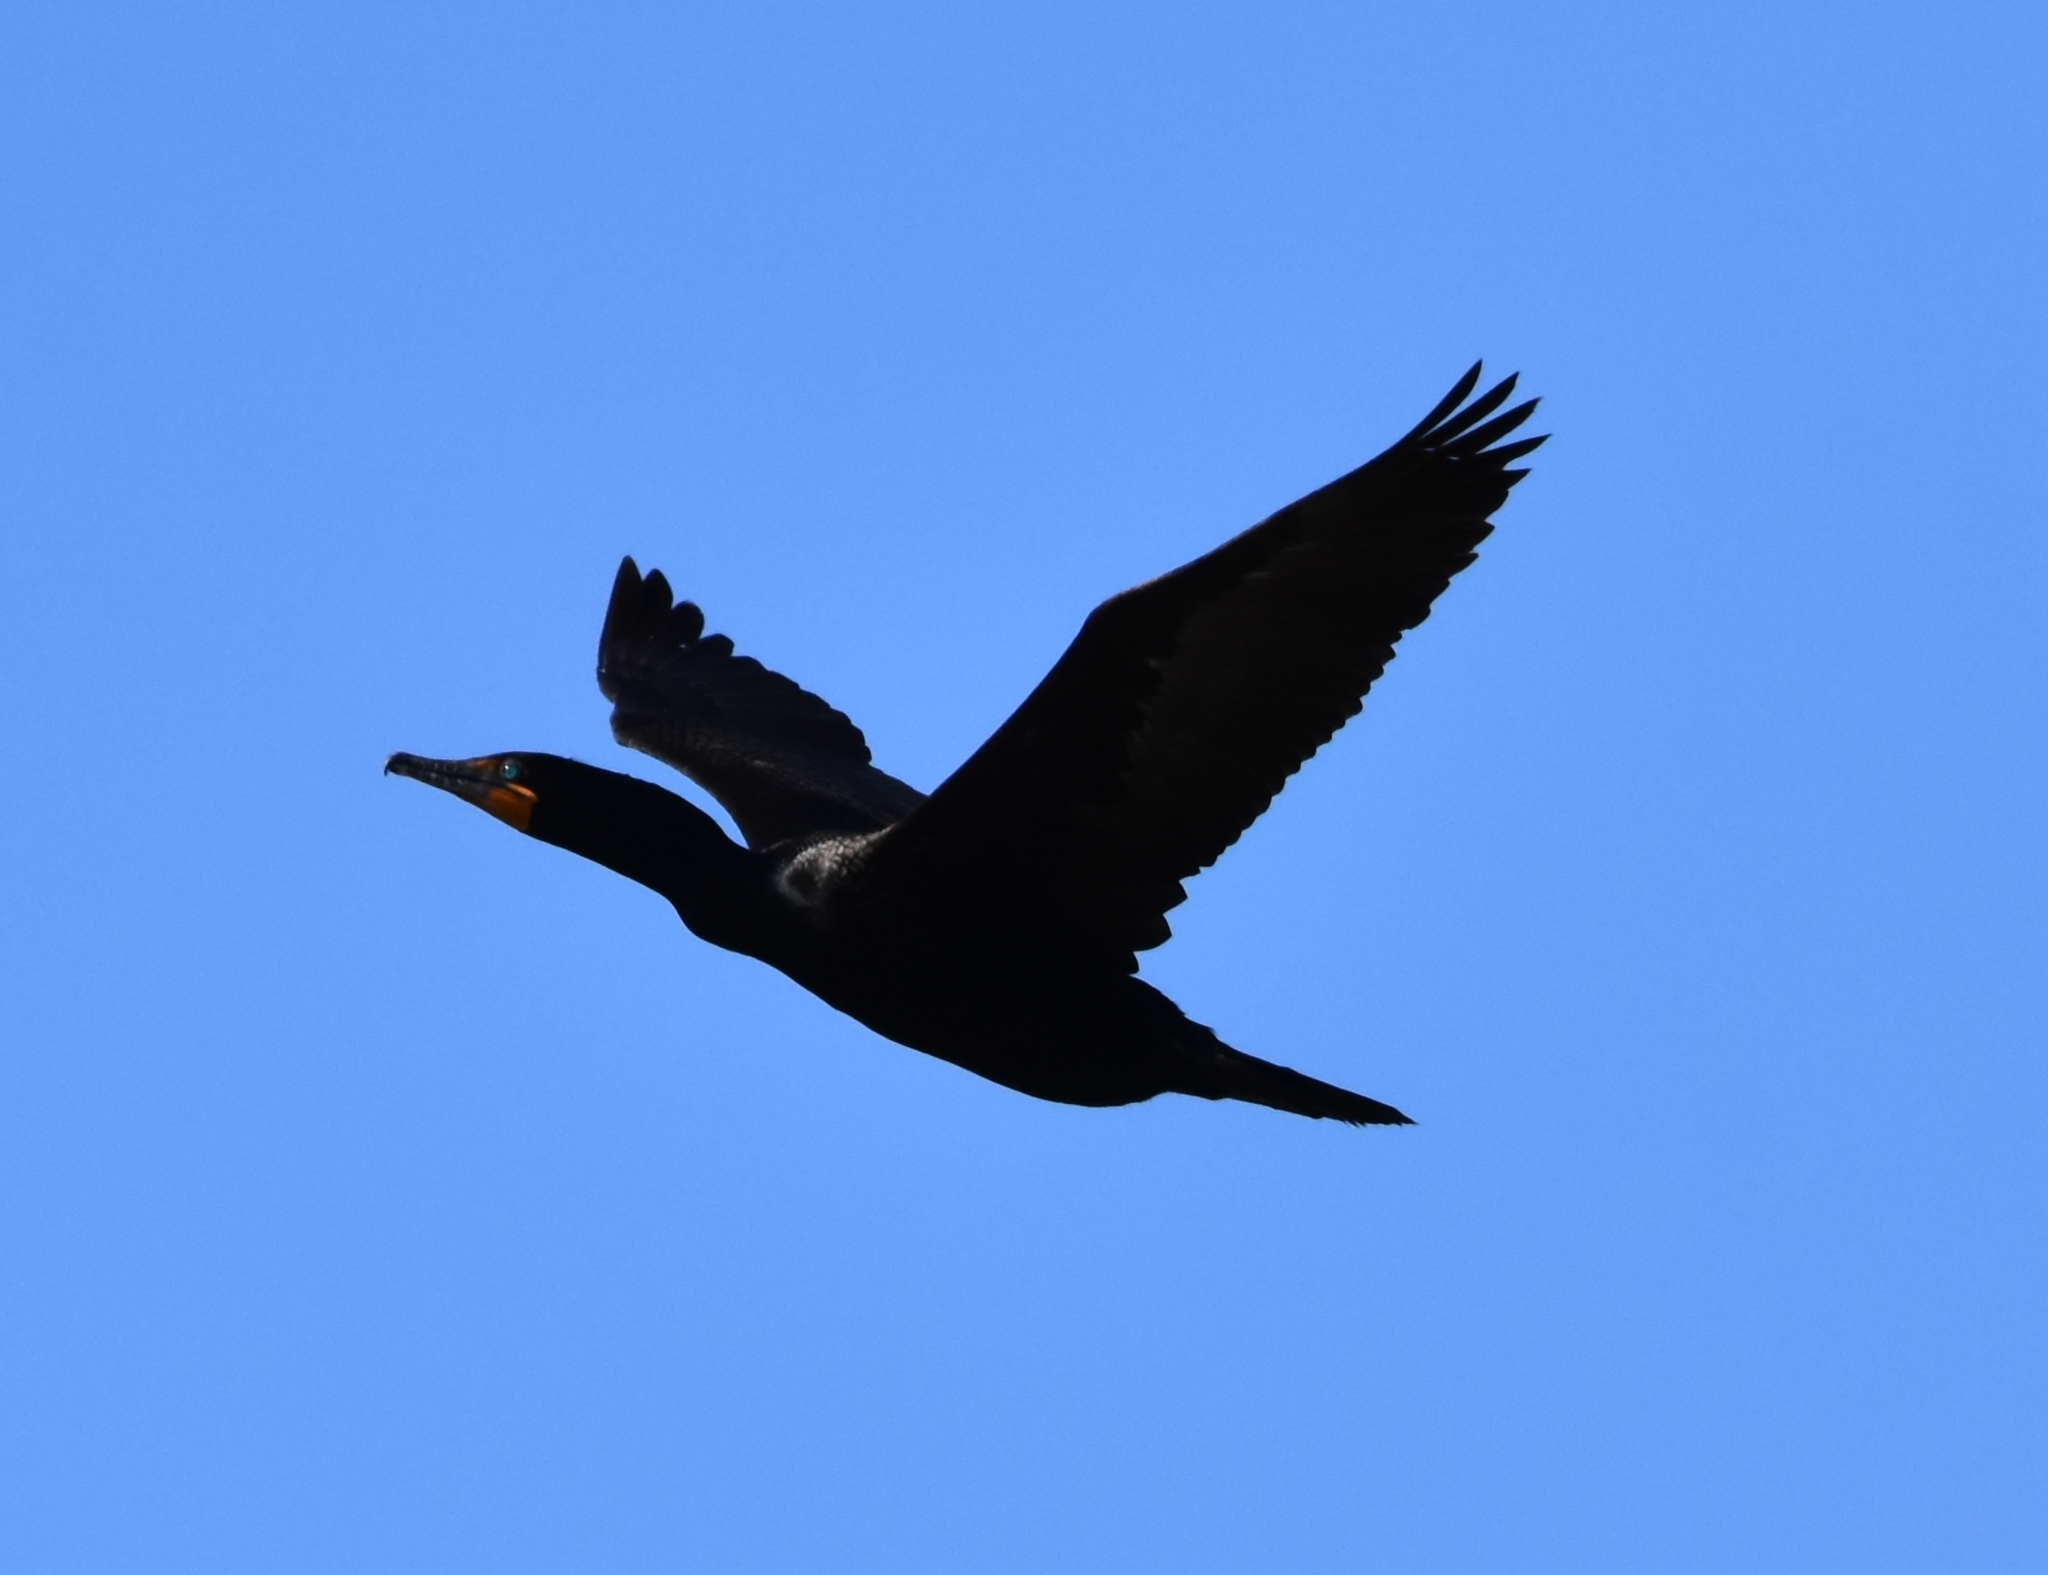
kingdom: Animalia
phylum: Chordata
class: Aves
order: Suliformes
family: Phalacrocoracidae
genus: Phalacrocorax
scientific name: Phalacrocorax auritus
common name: Double-crested cormorant
